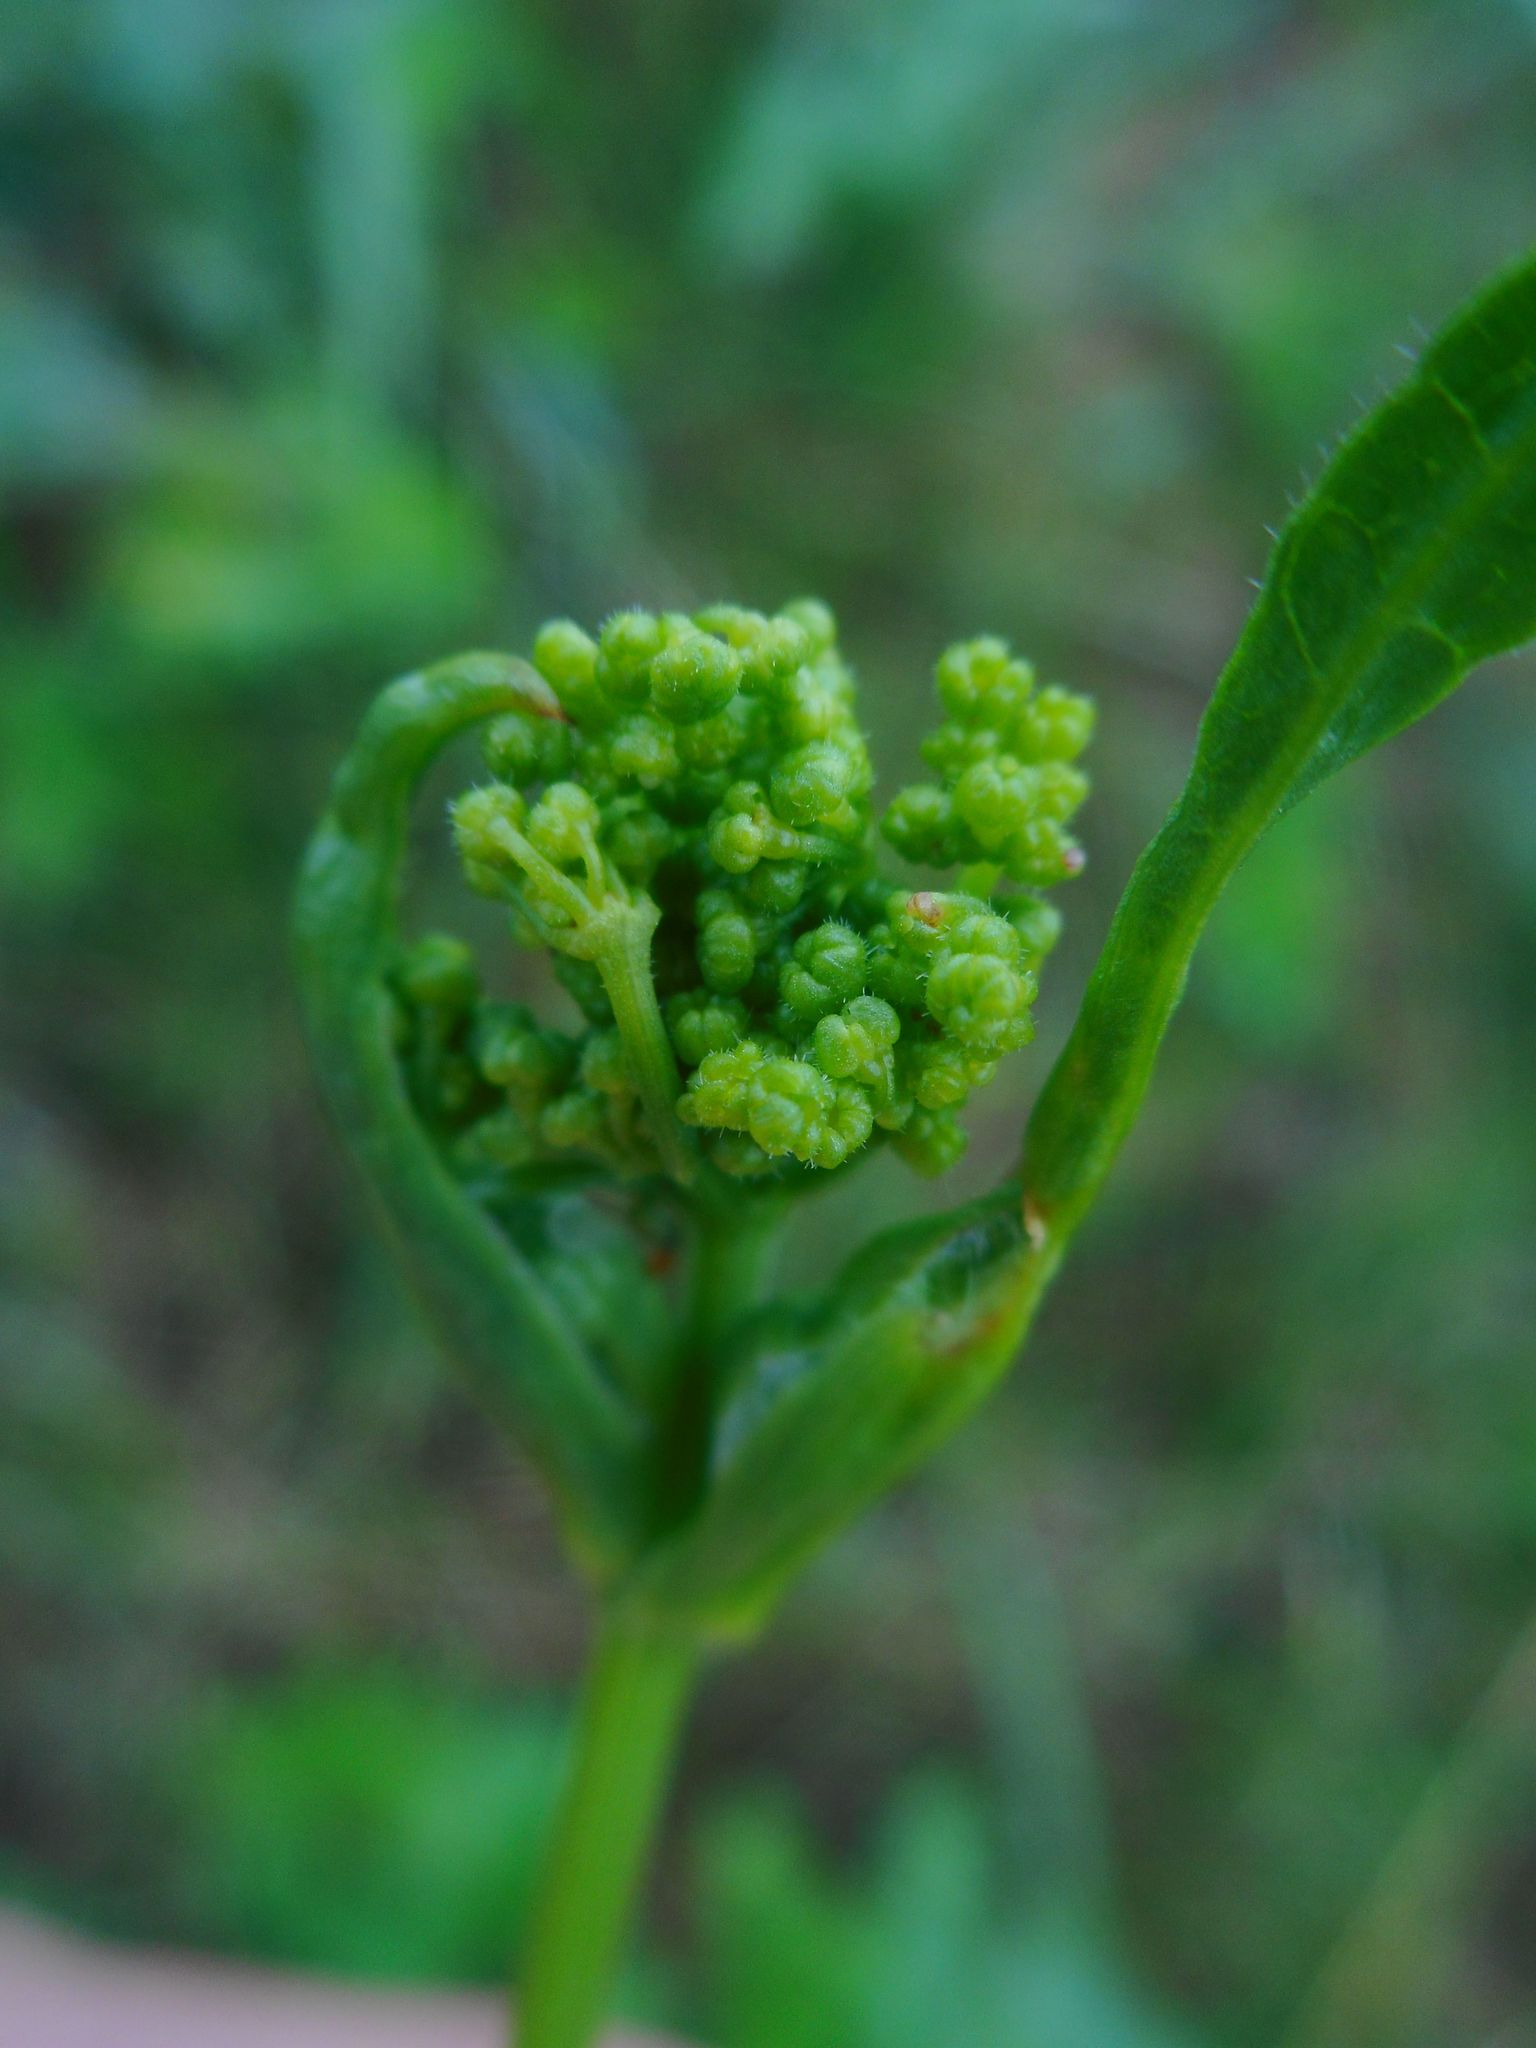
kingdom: Plantae
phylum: Tracheophyta
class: Magnoliopsida
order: Apiales
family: Apiaceae
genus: Pastinaca
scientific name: Pastinaca sativa
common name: Wild parsnip
